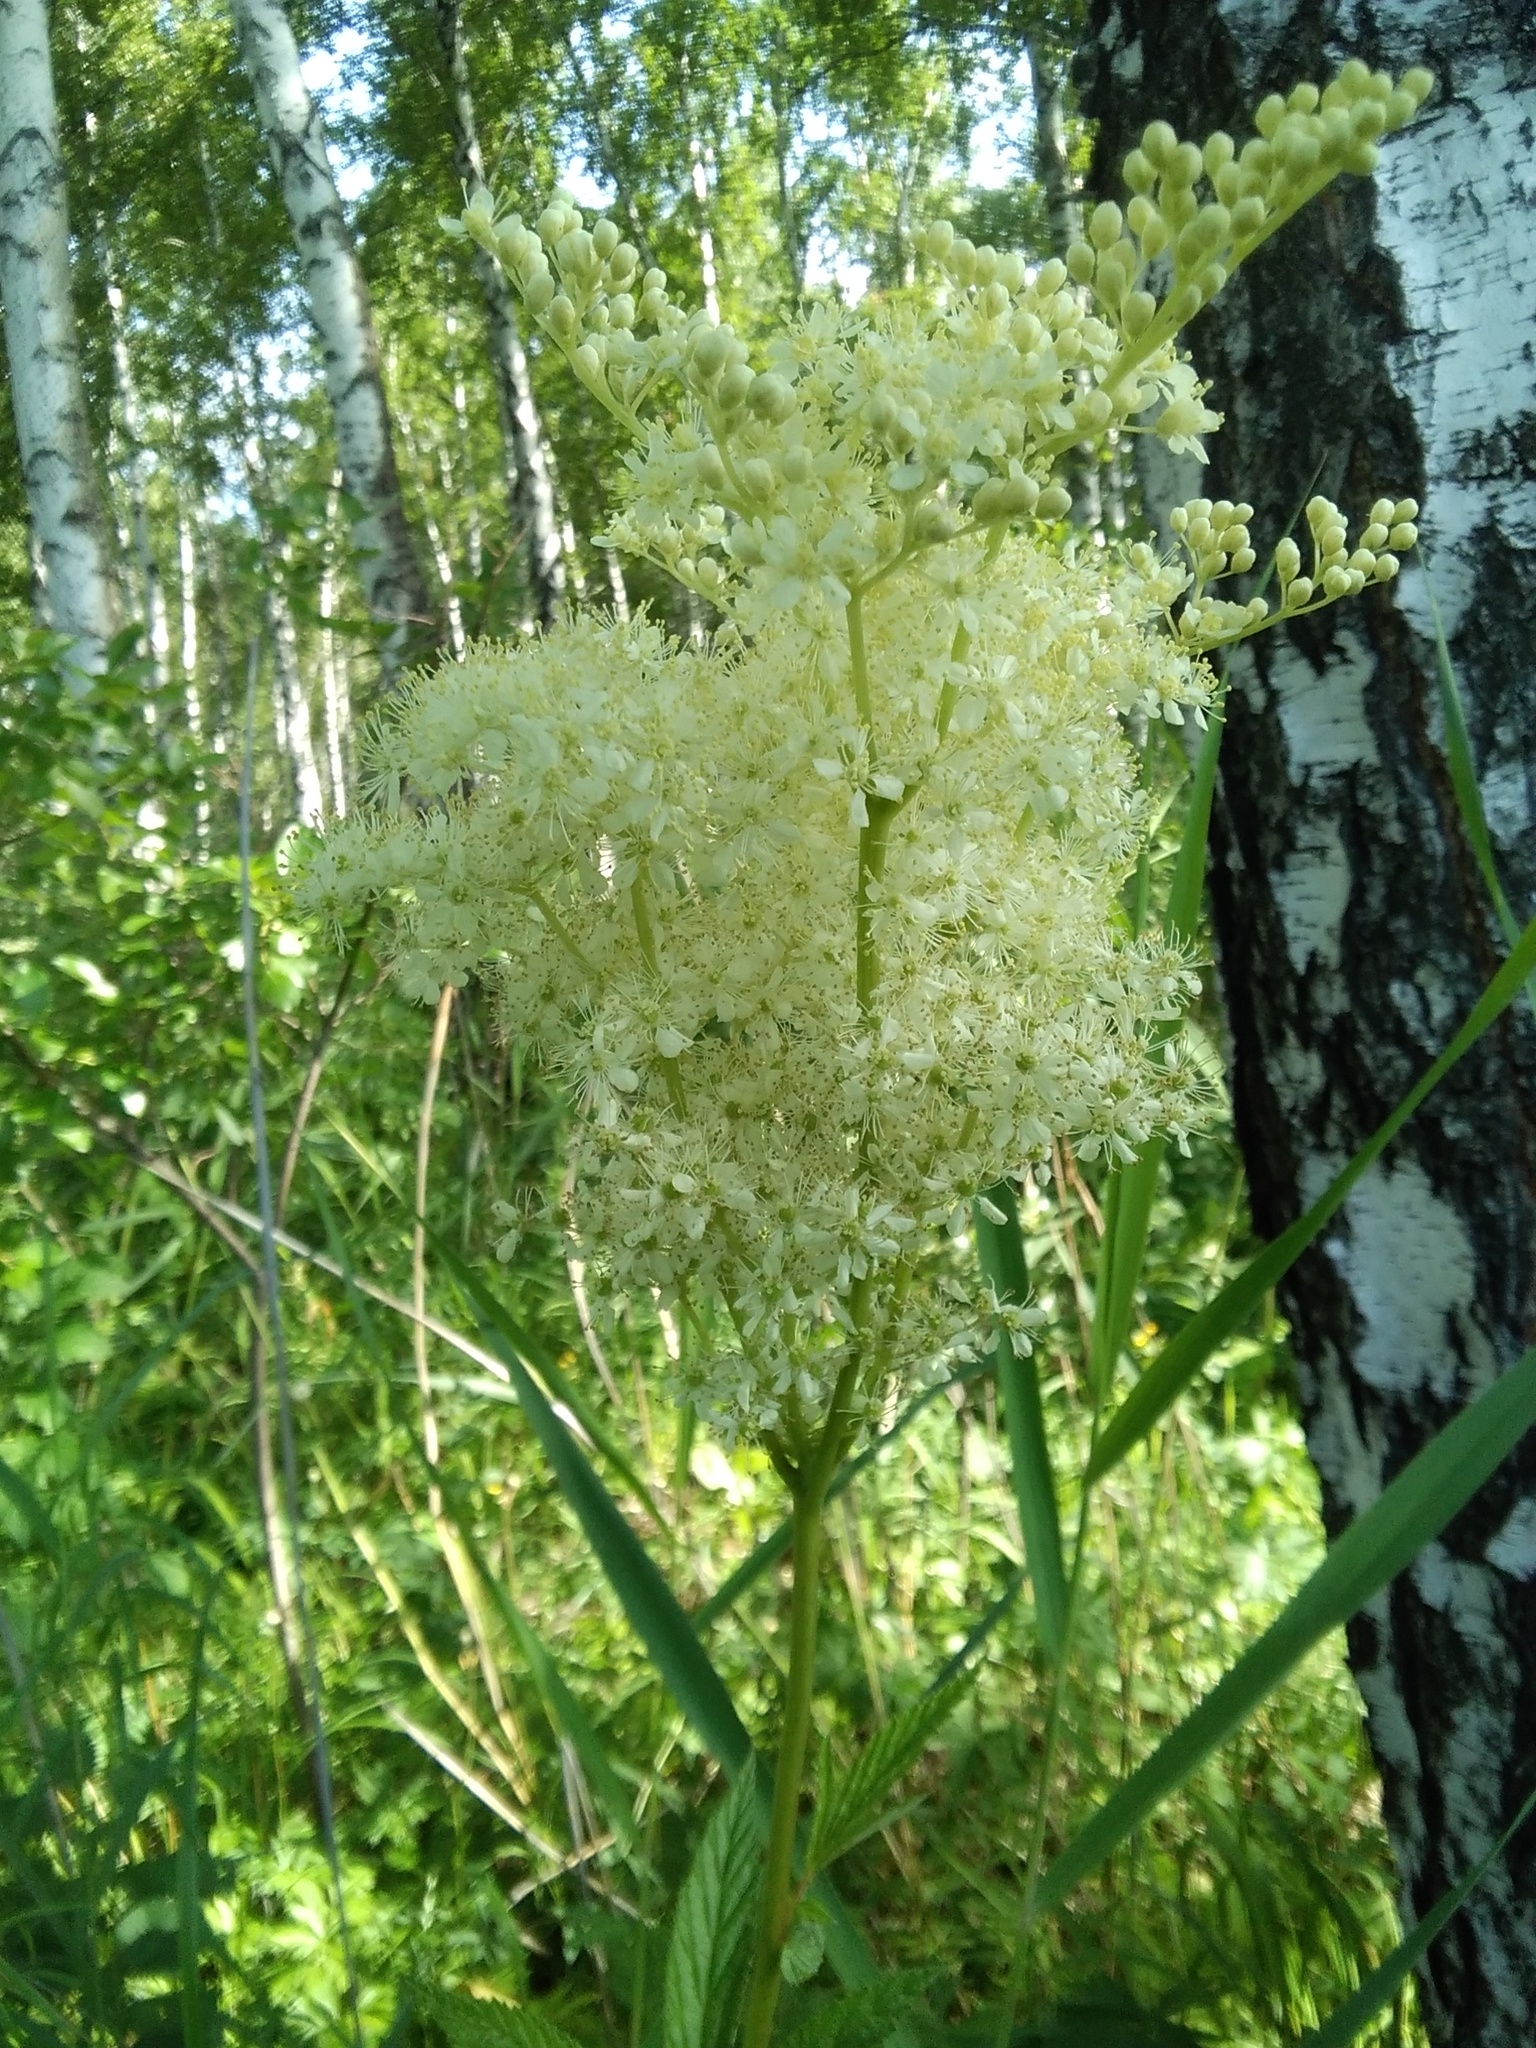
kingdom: Plantae
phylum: Tracheophyta
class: Magnoliopsida
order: Rosales
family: Rosaceae
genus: Filipendula
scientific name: Filipendula ulmaria
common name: Meadowsweet
